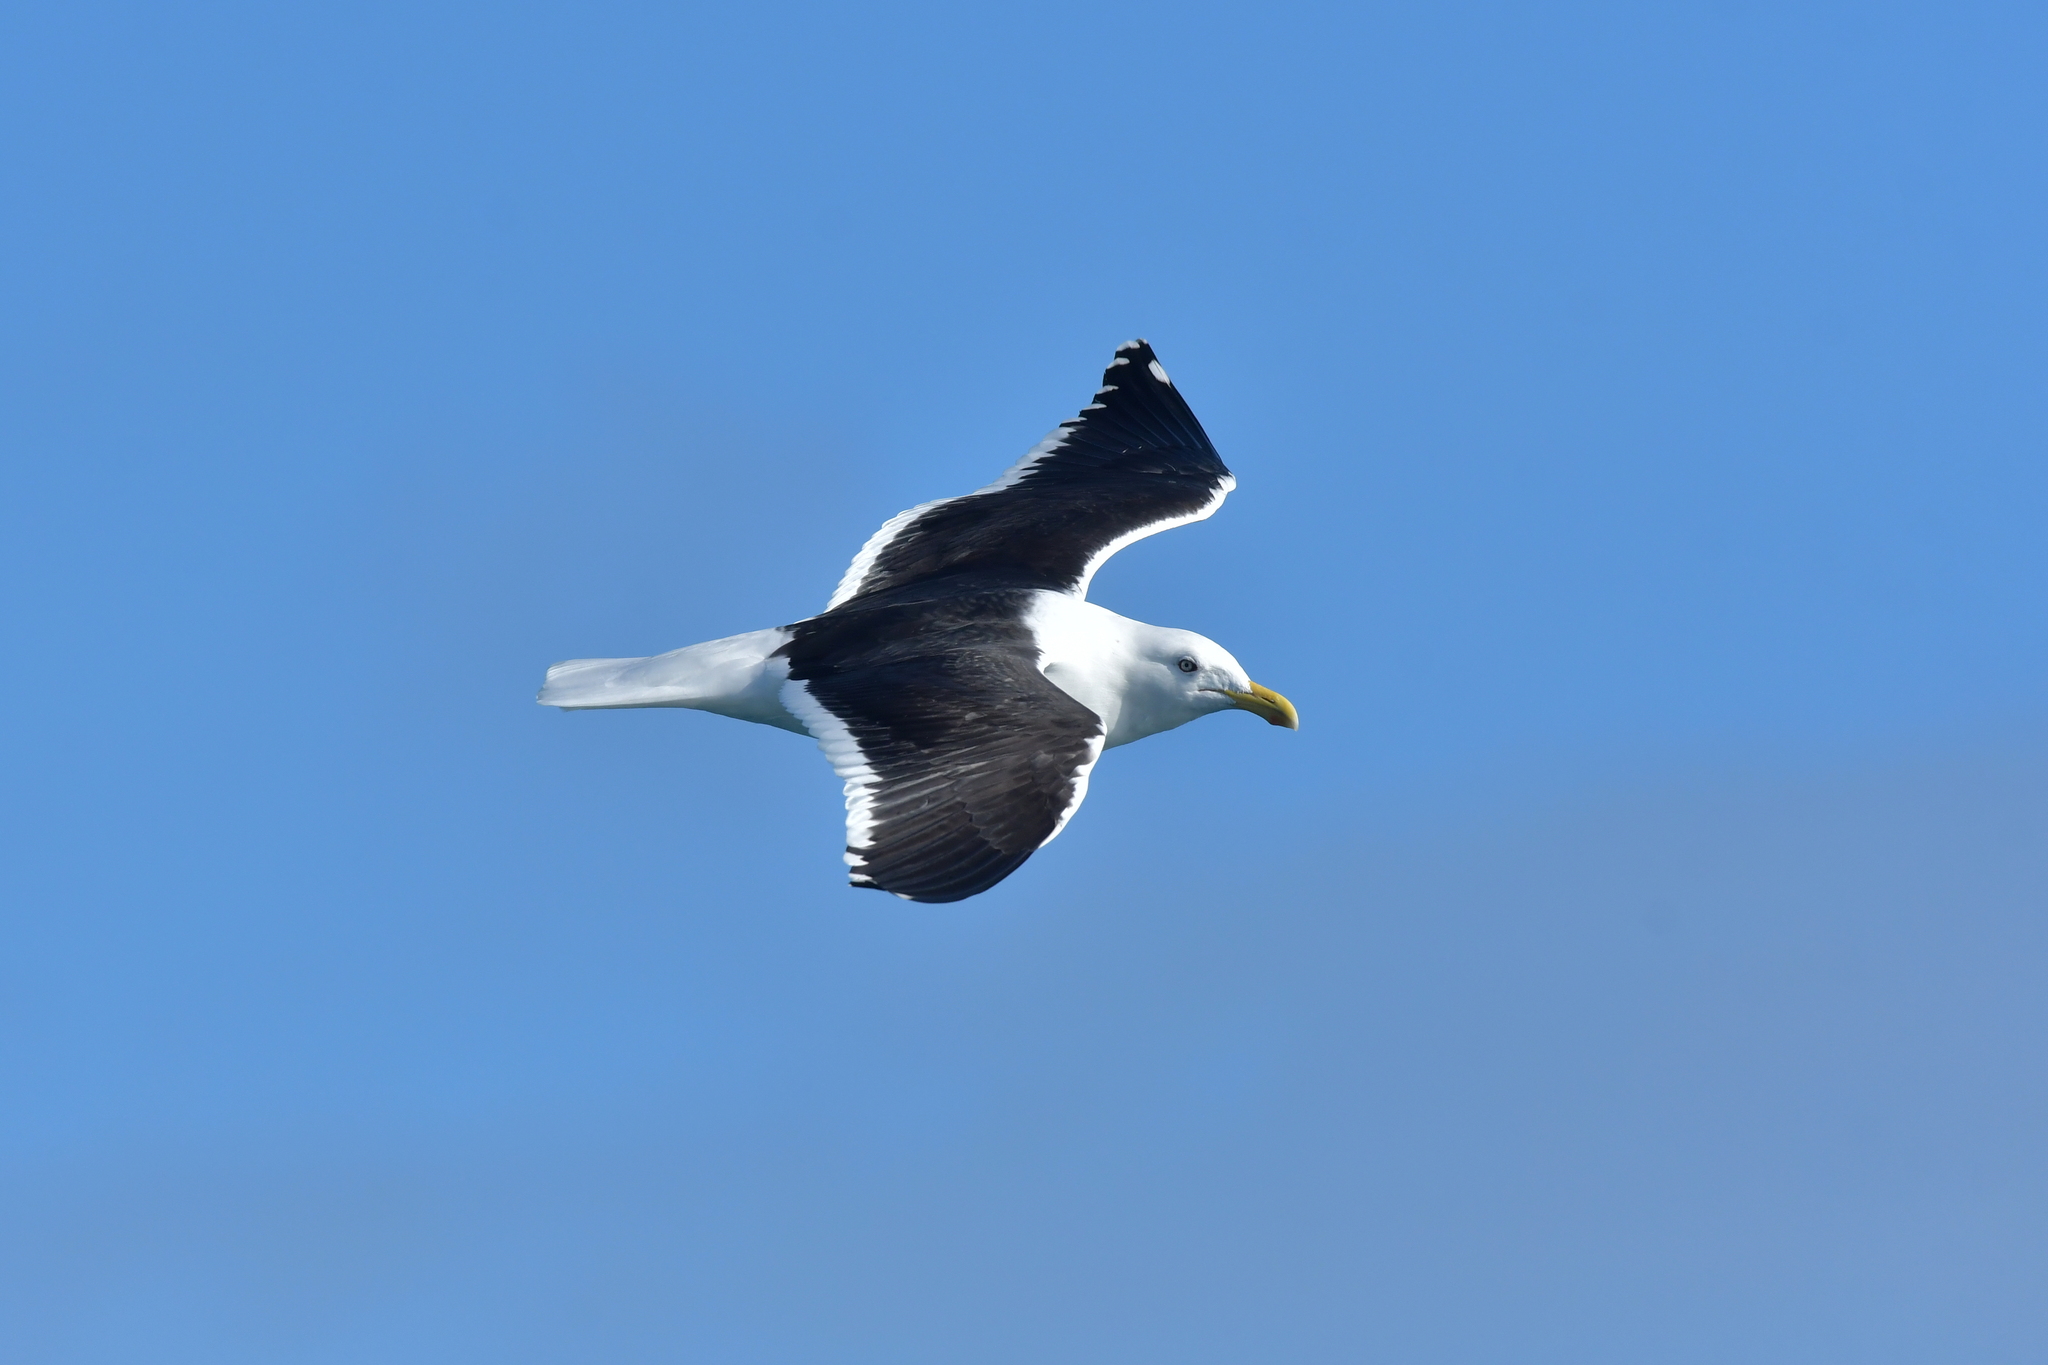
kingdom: Animalia
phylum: Chordata
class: Aves
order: Charadriiformes
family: Laridae
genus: Larus
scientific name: Larus dominicanus
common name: Kelp gull
